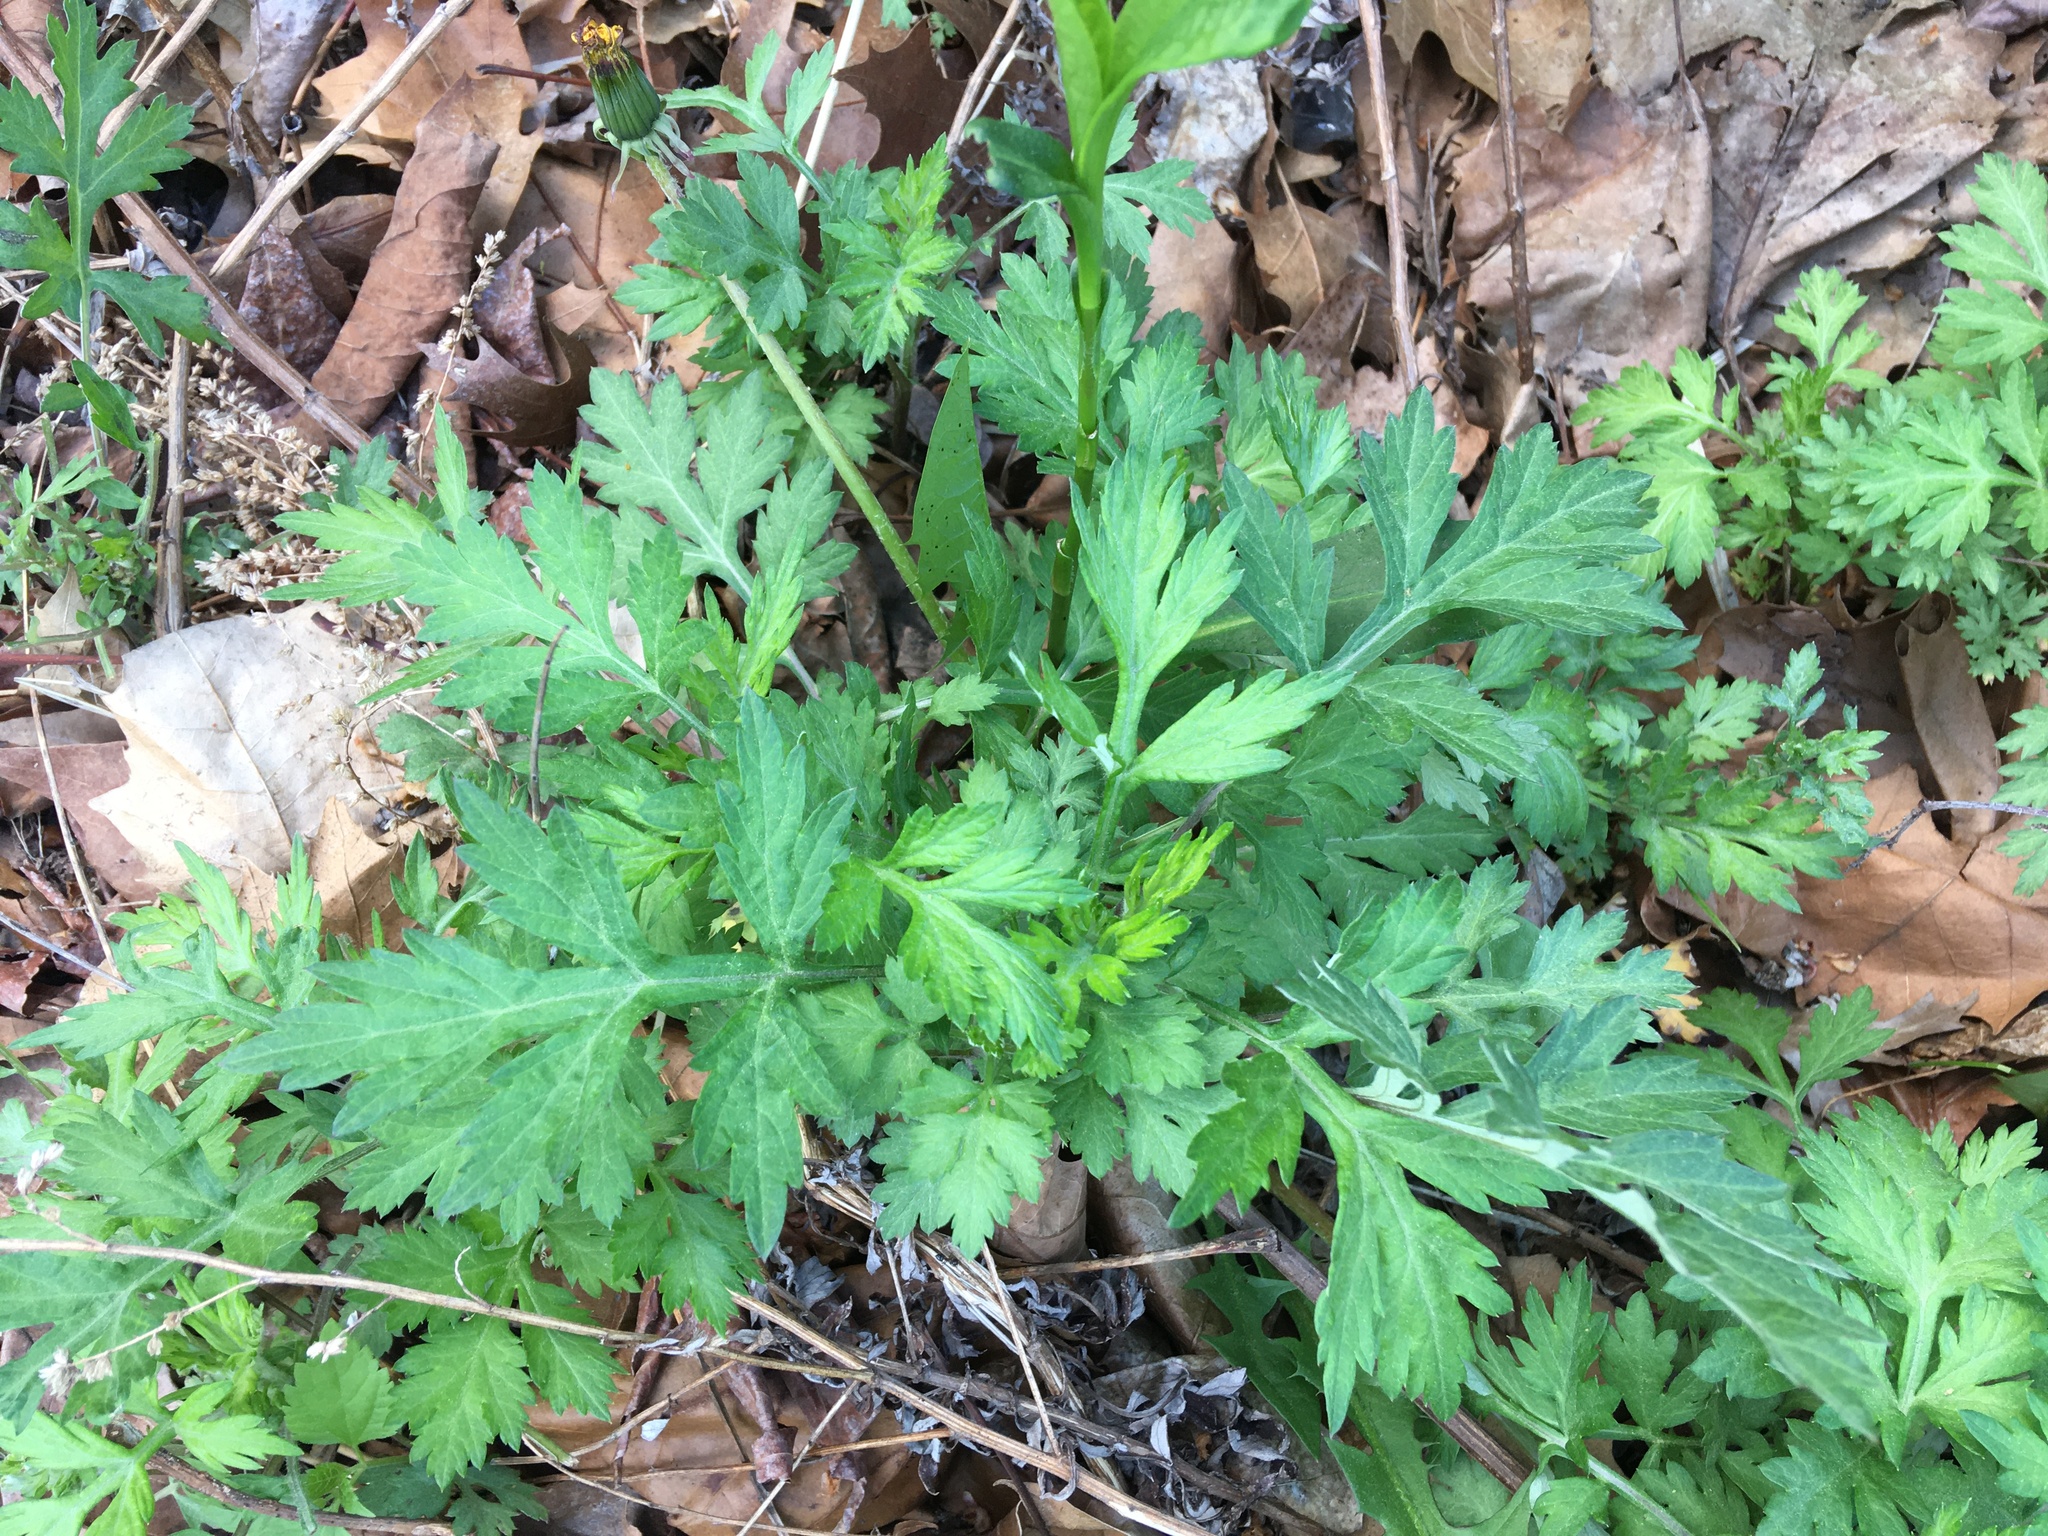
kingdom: Plantae
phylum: Tracheophyta
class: Magnoliopsida
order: Asterales
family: Asteraceae
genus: Artemisia
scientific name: Artemisia vulgaris
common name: Mugwort
